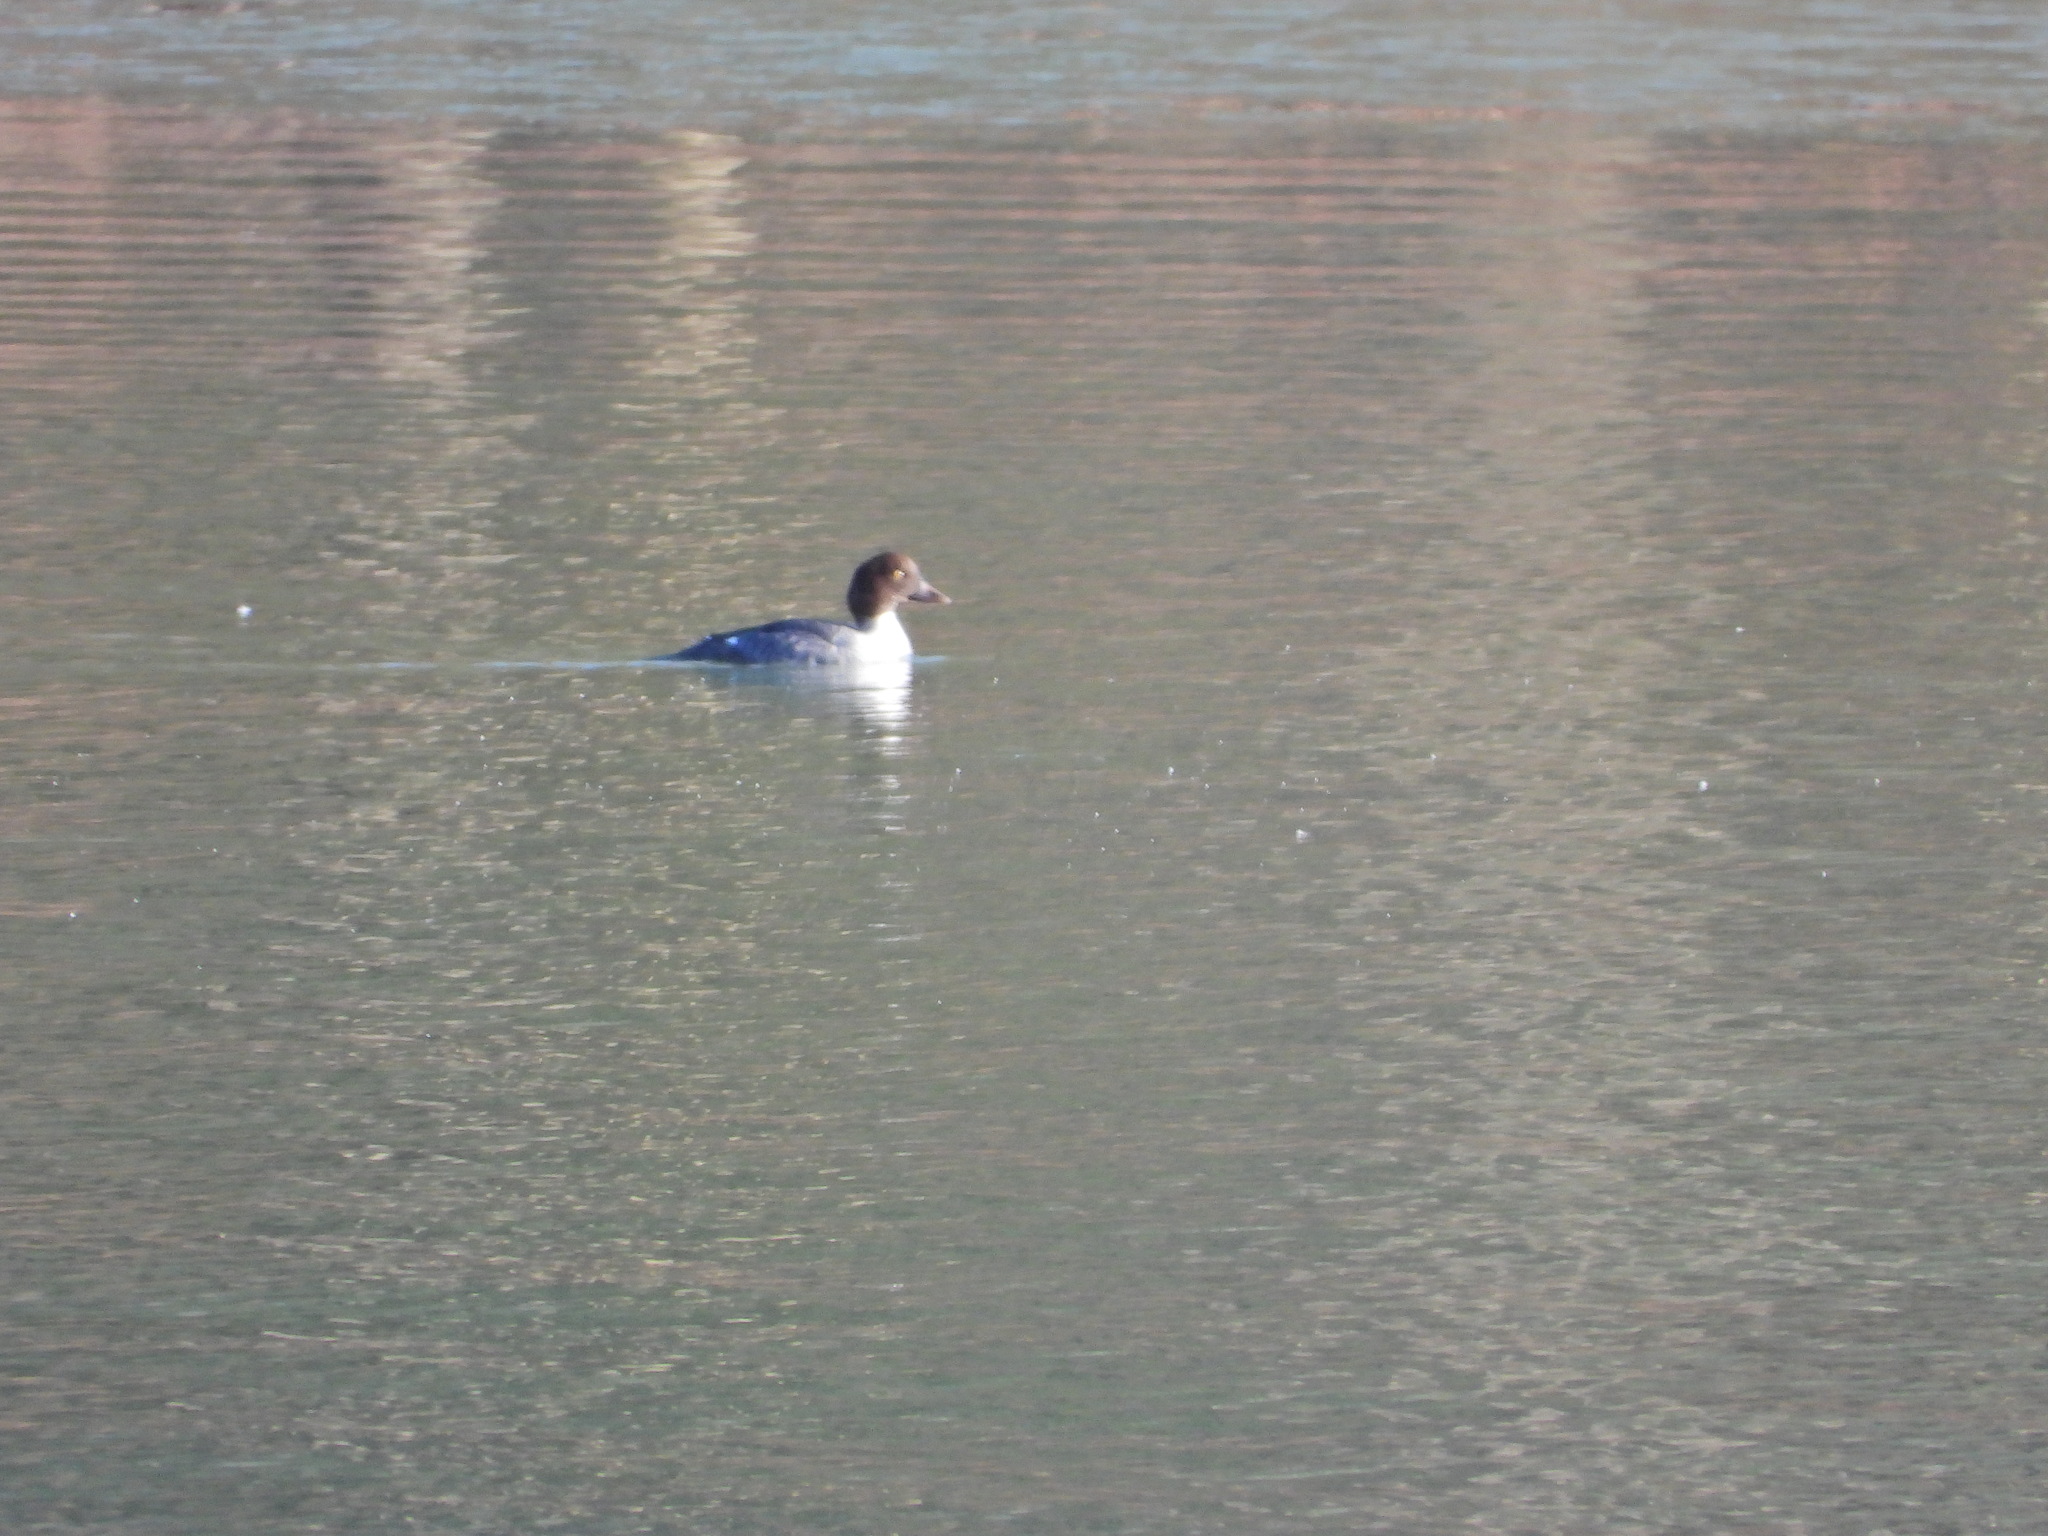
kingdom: Animalia
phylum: Chordata
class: Aves
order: Anseriformes
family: Anatidae
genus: Bucephala
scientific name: Bucephala clangula
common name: Common goldeneye
